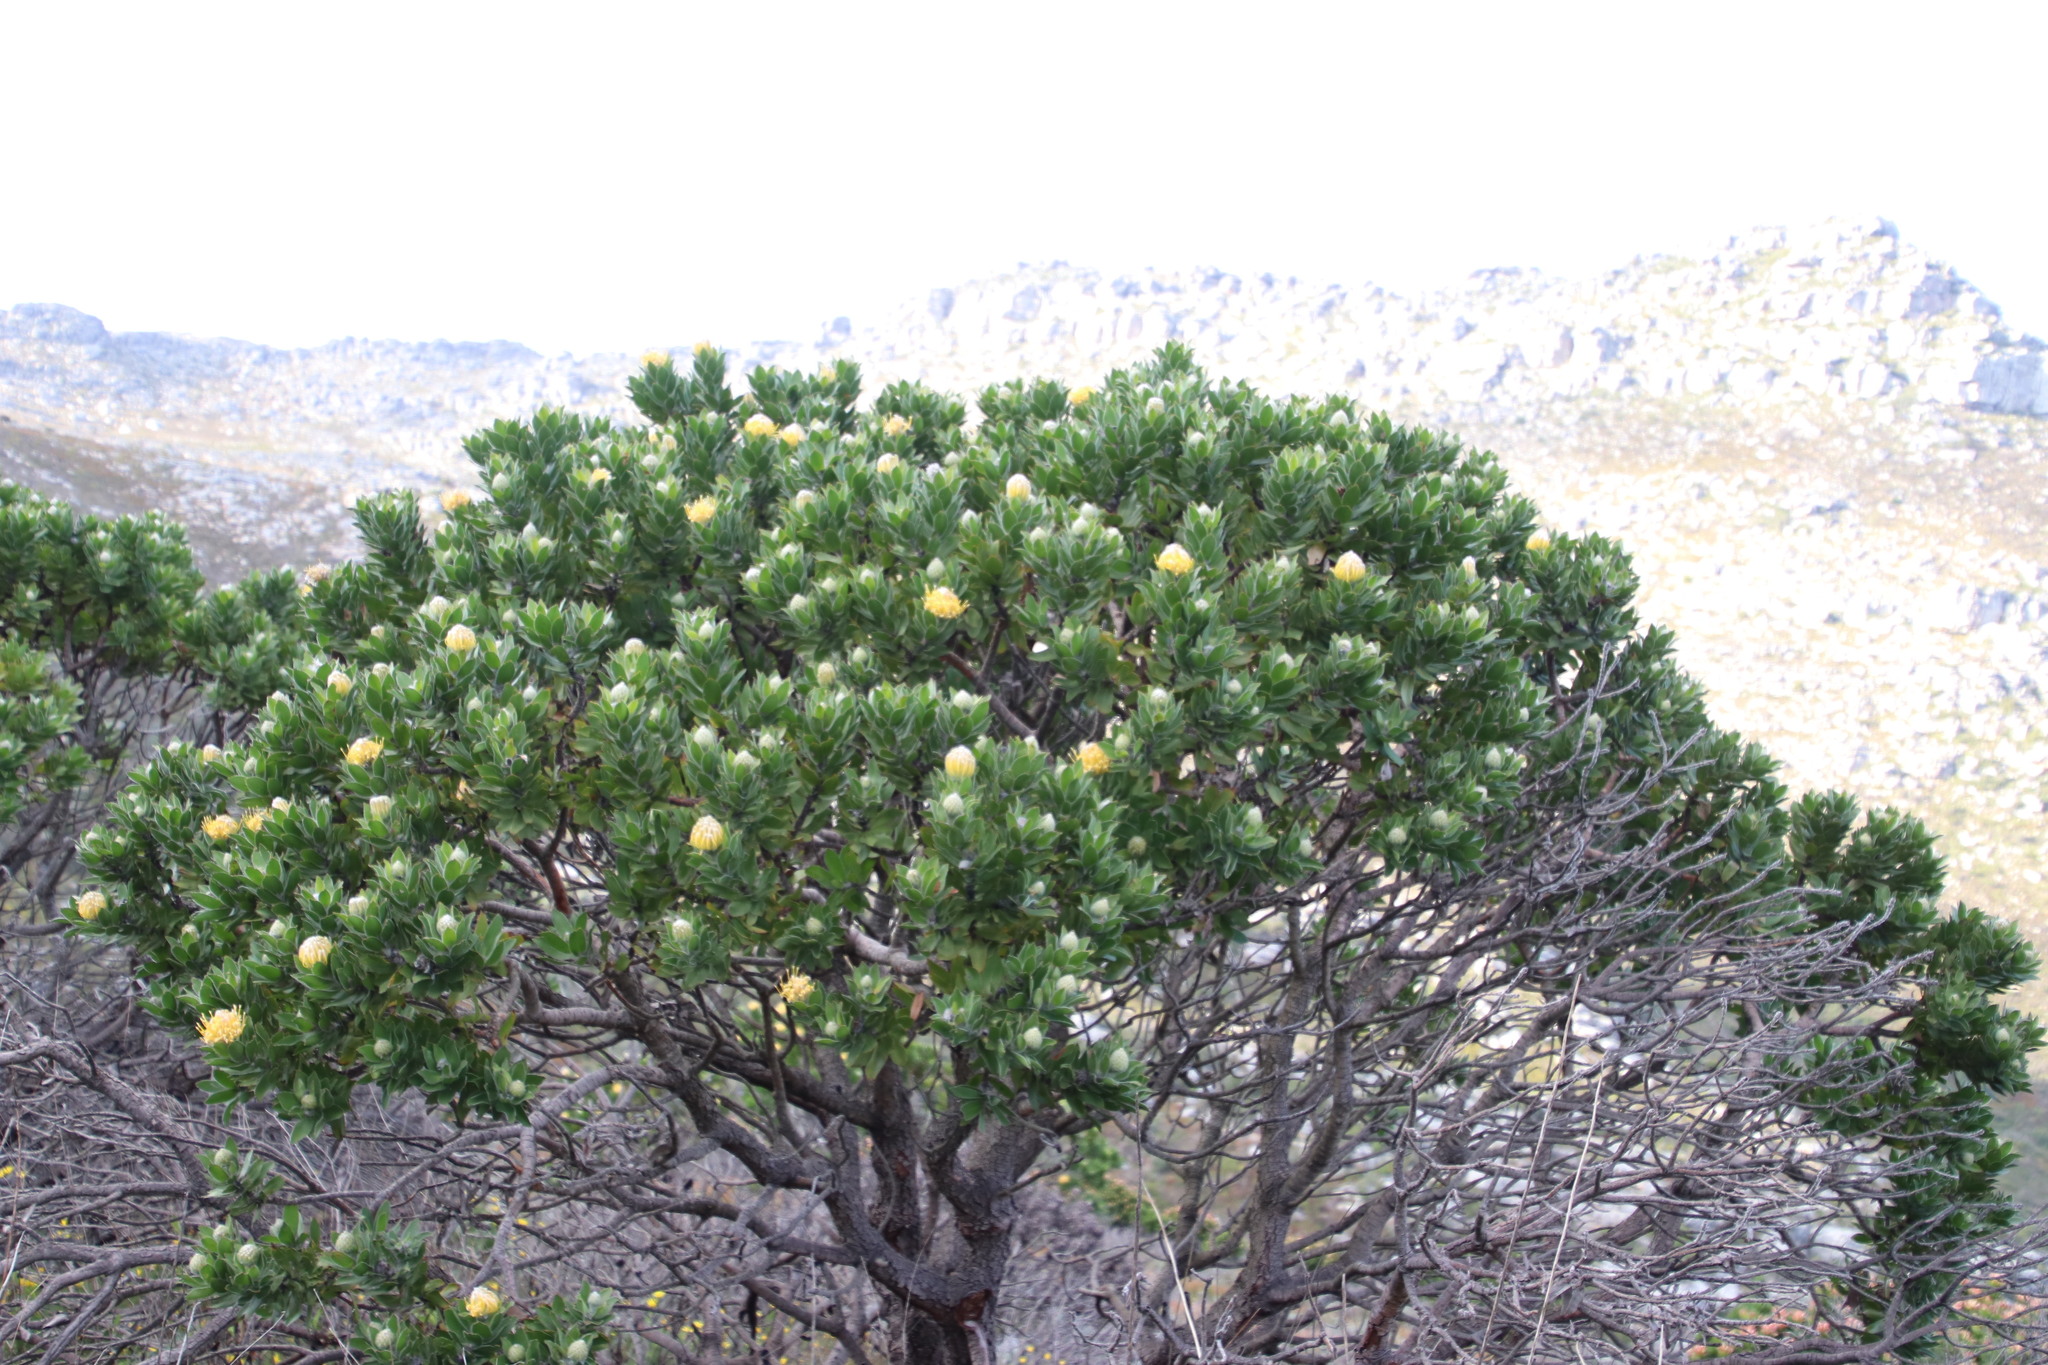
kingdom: Plantae
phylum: Tracheophyta
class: Magnoliopsida
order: Proteales
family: Proteaceae
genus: Leucospermum
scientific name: Leucospermum conocarpodendron
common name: Tree pincushion
